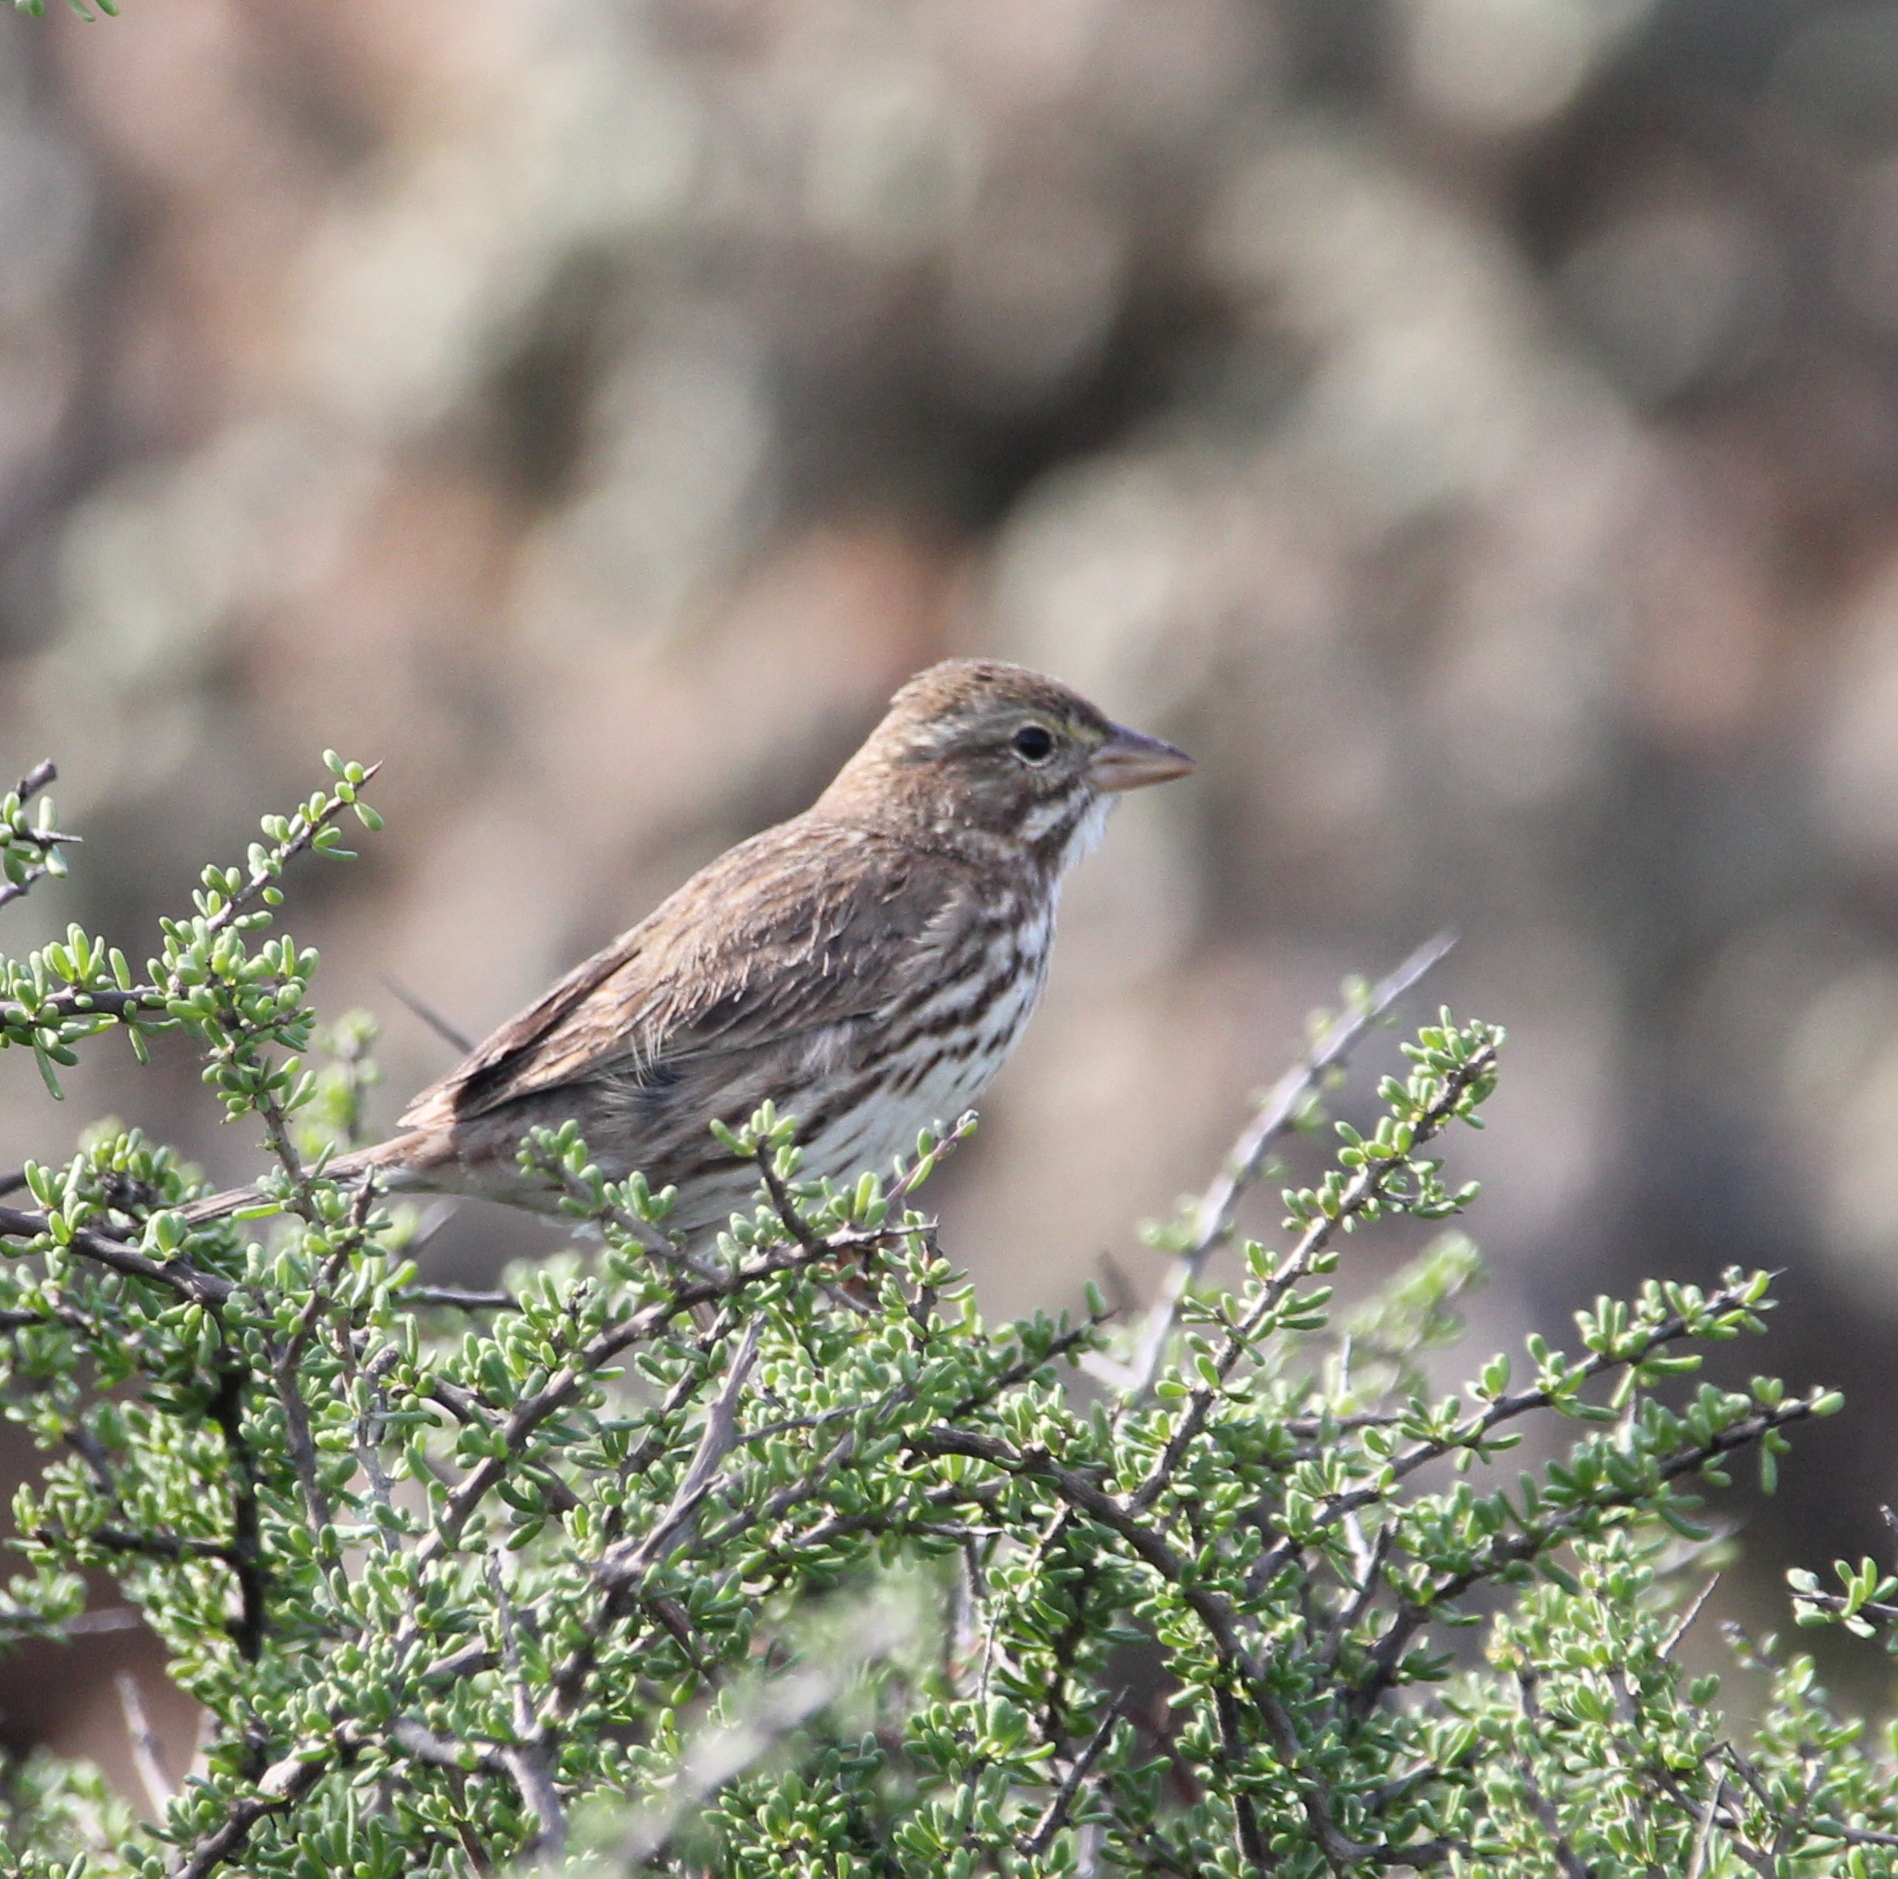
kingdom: Animalia
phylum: Chordata
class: Aves
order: Passeriformes
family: Passerellidae
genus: Passerculus
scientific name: Passerculus sandwichensis
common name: Savannah sparrow
